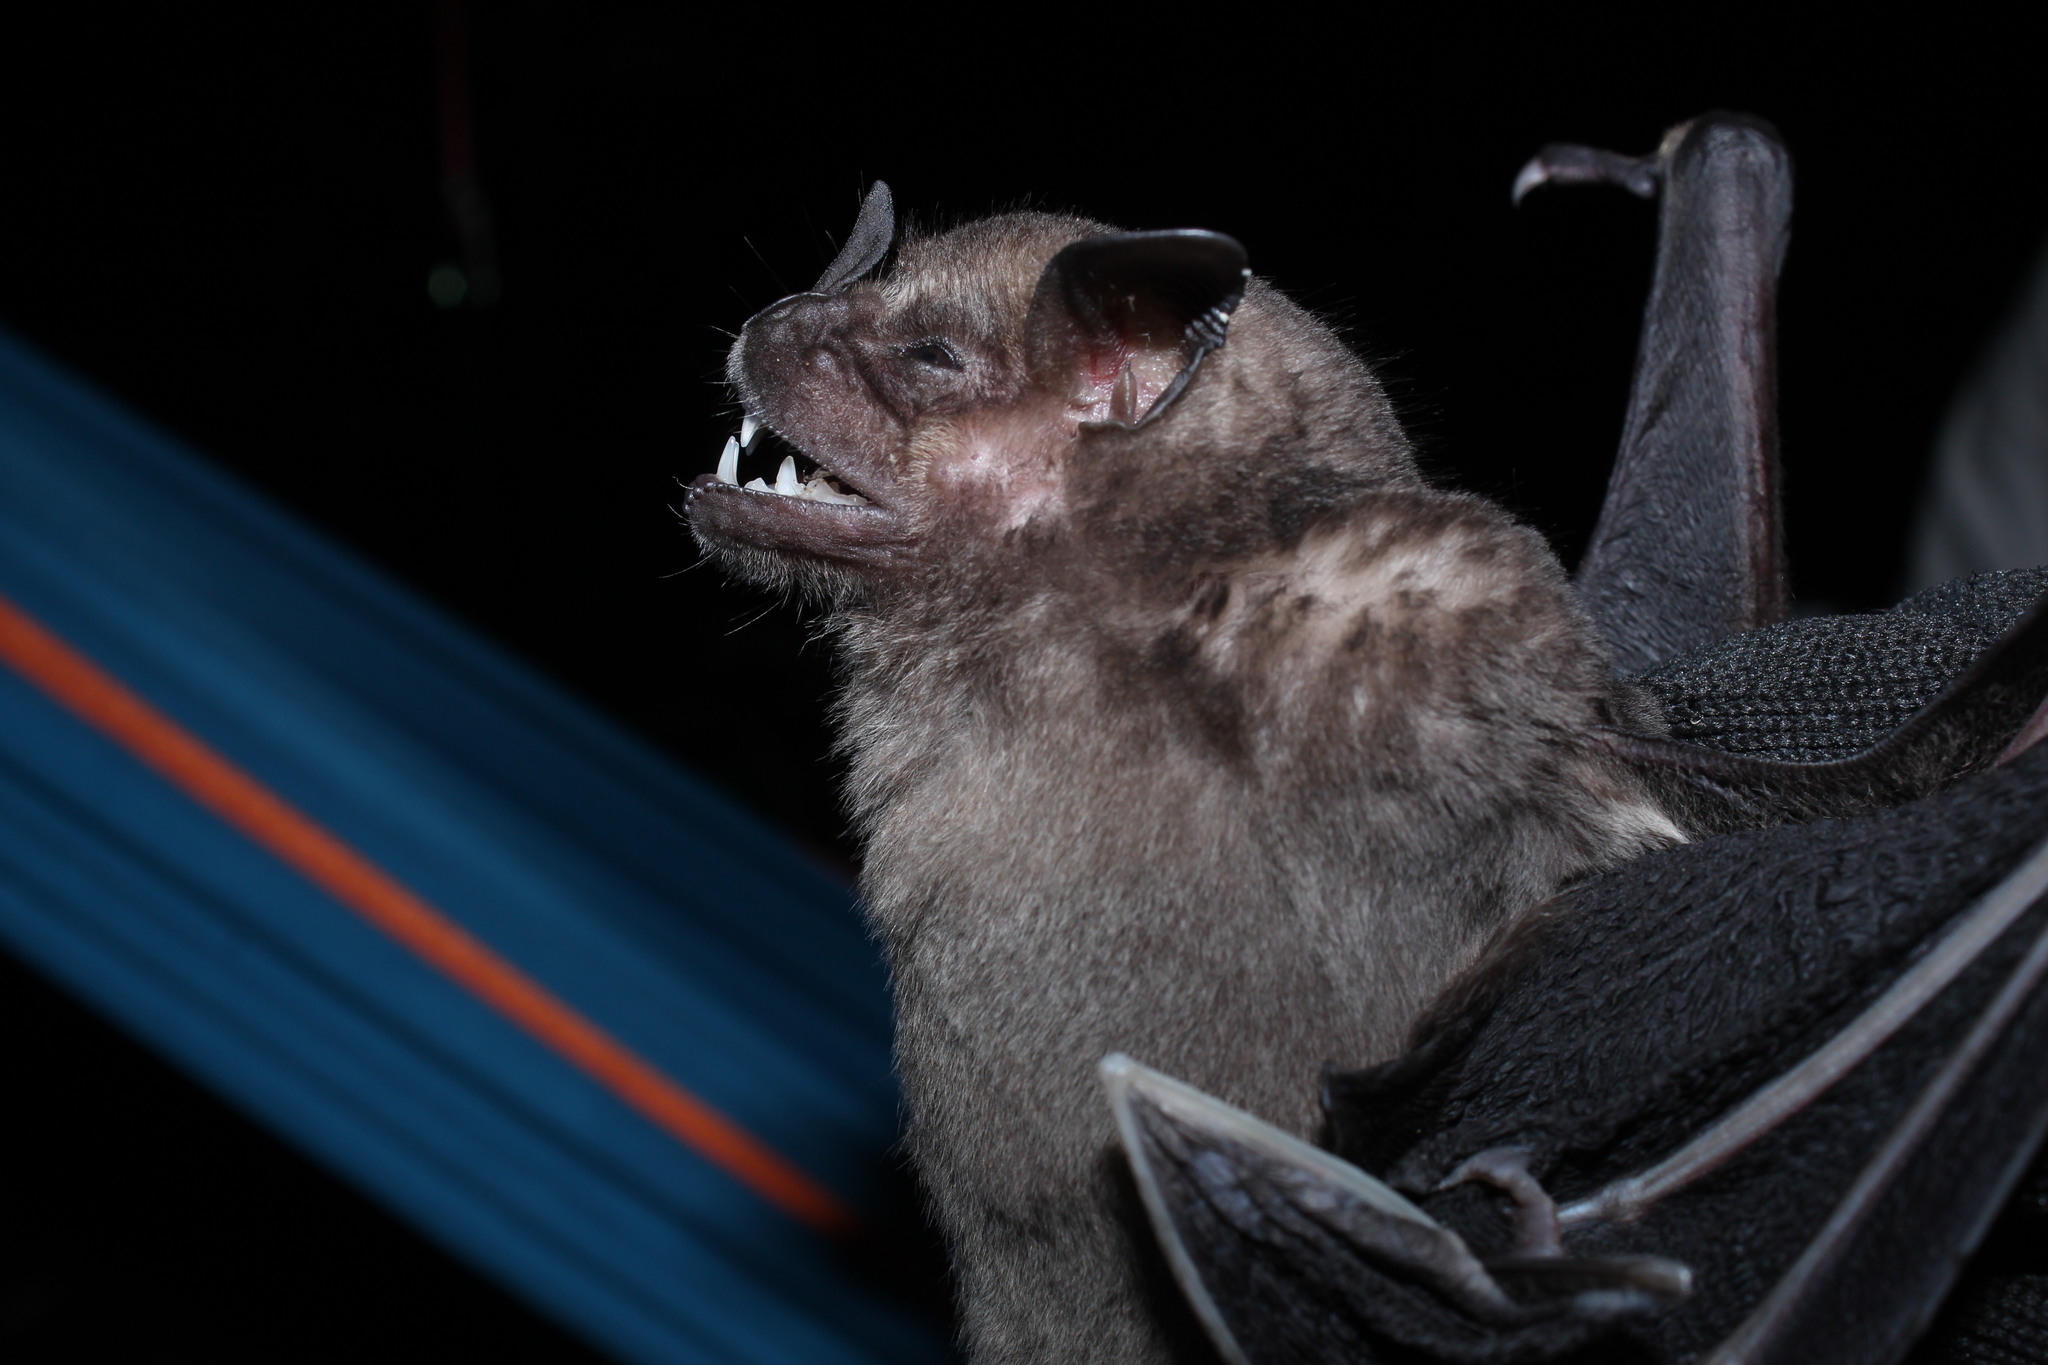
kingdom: Animalia
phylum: Chordata
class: Mammalia
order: Chiroptera
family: Phyllostomidae
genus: Artibeus
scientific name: Artibeus fimbriatus
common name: Fringed fruit-eating bat
